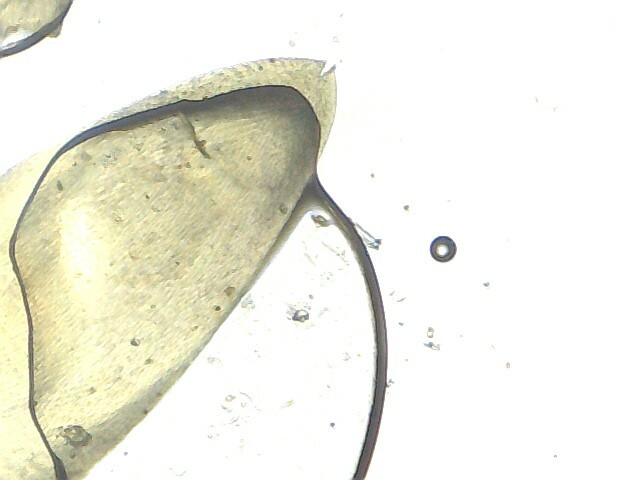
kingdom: Plantae
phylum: Bryophyta
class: Bryopsida
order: Hypnales
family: Pylaisiaceae
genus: Calliergonella
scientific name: Calliergonella cuspidata
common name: Common large wetland moss
